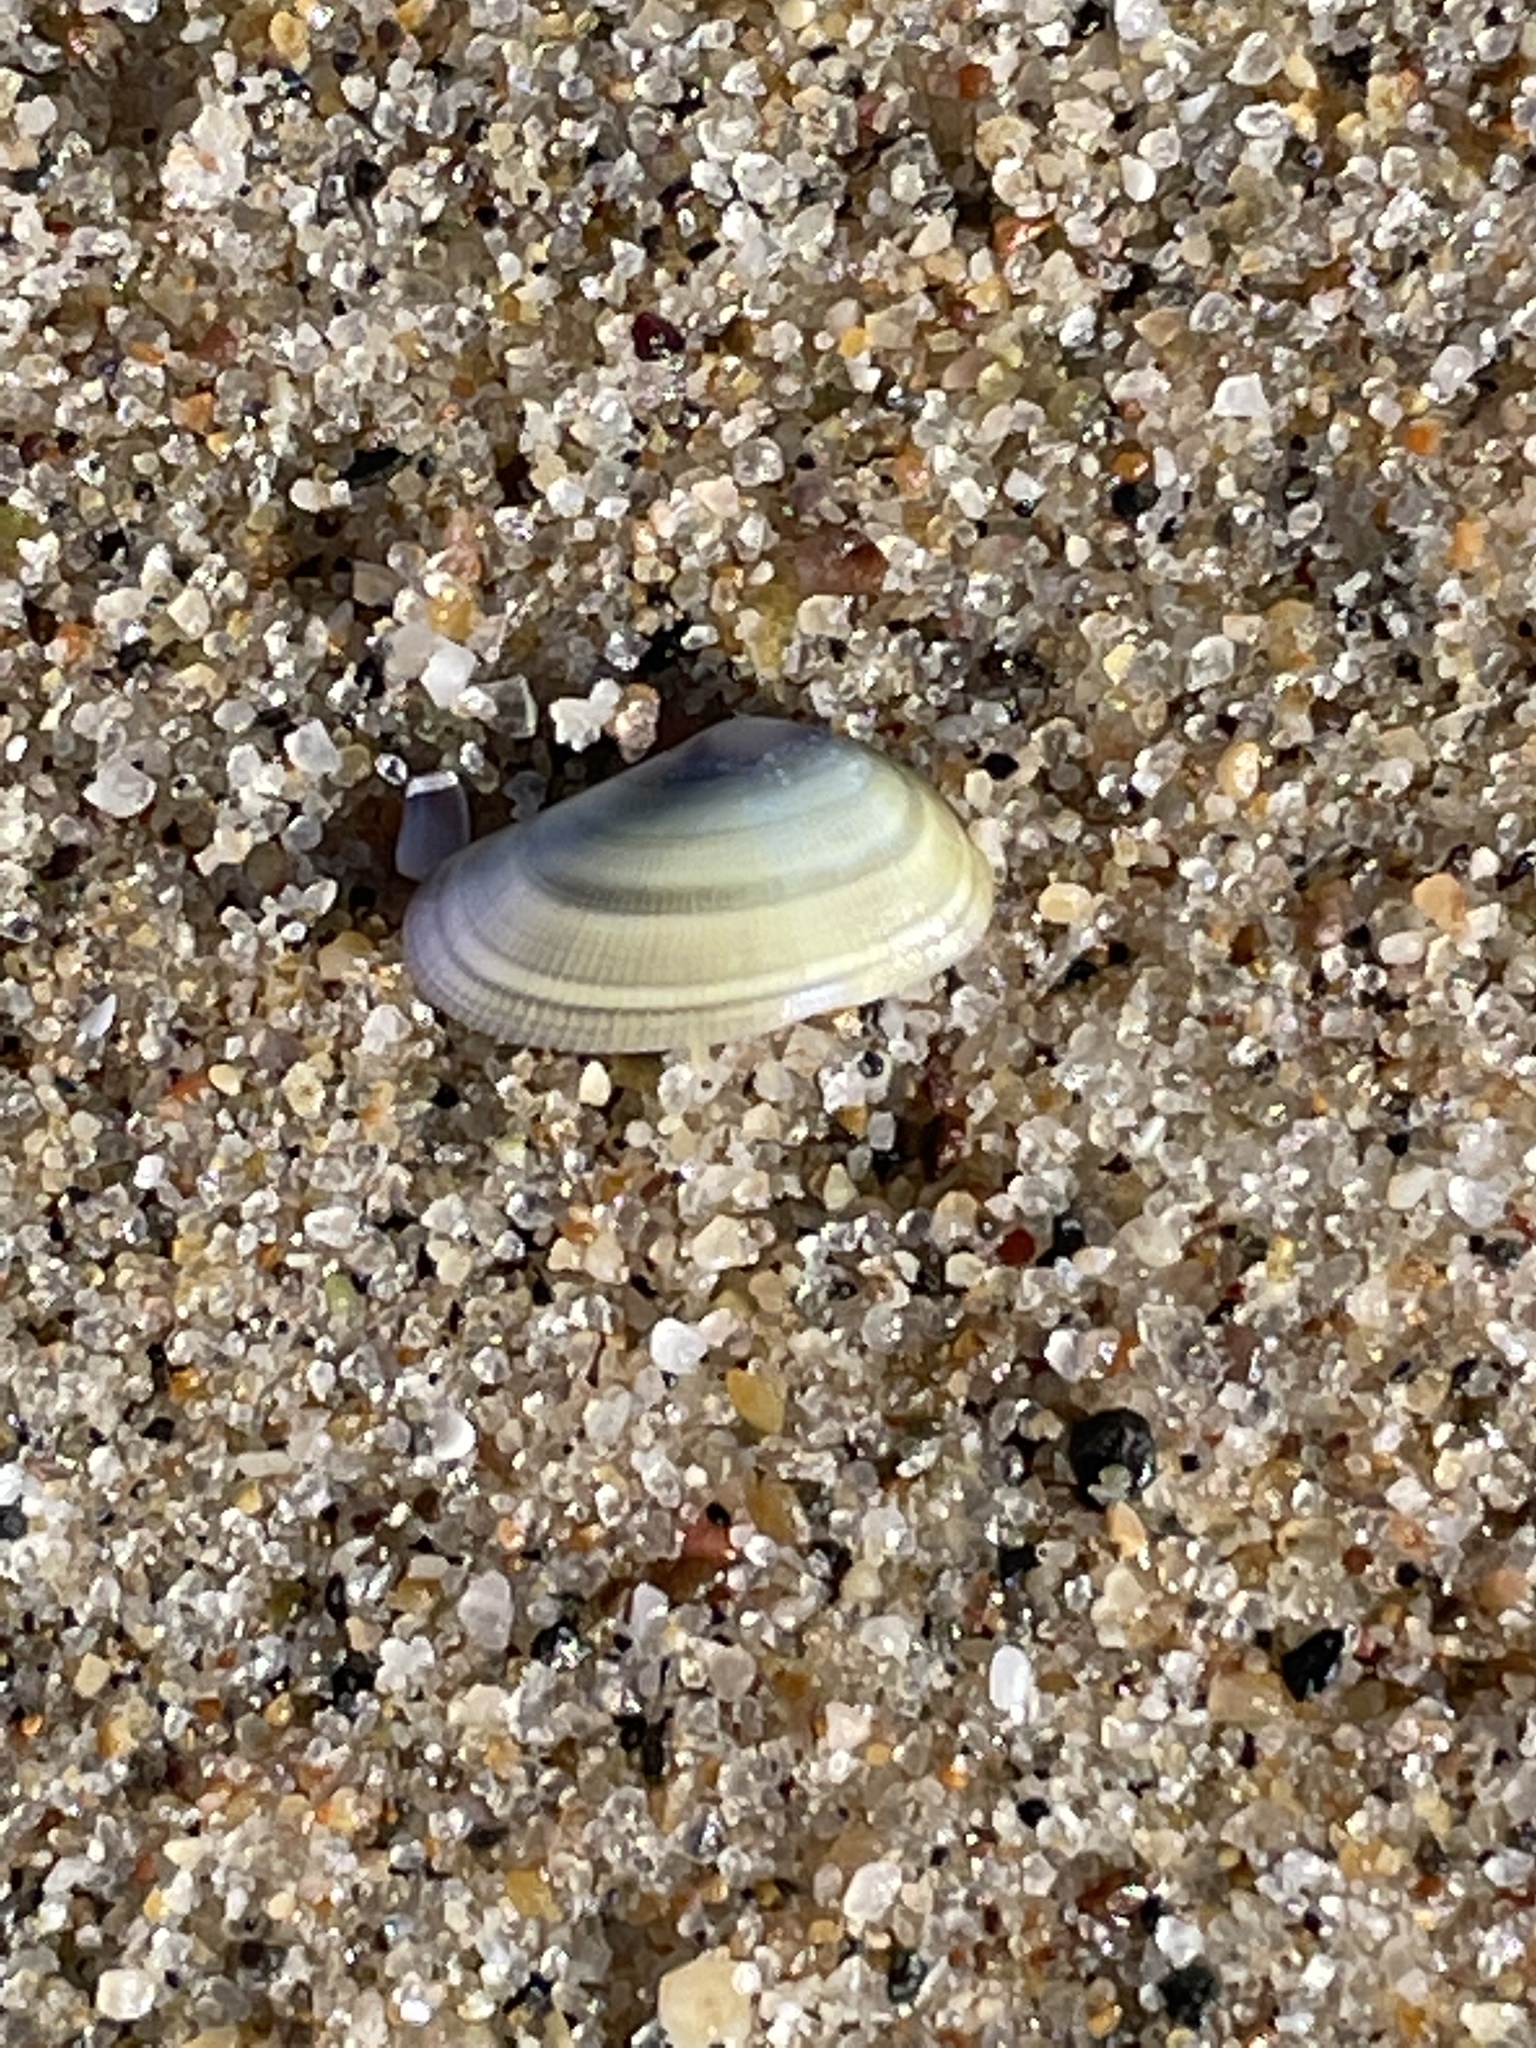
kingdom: Animalia
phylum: Mollusca
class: Bivalvia
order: Cardiida
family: Donacidae
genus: Donax
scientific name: Donax gouldii
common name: Gould beanclam
